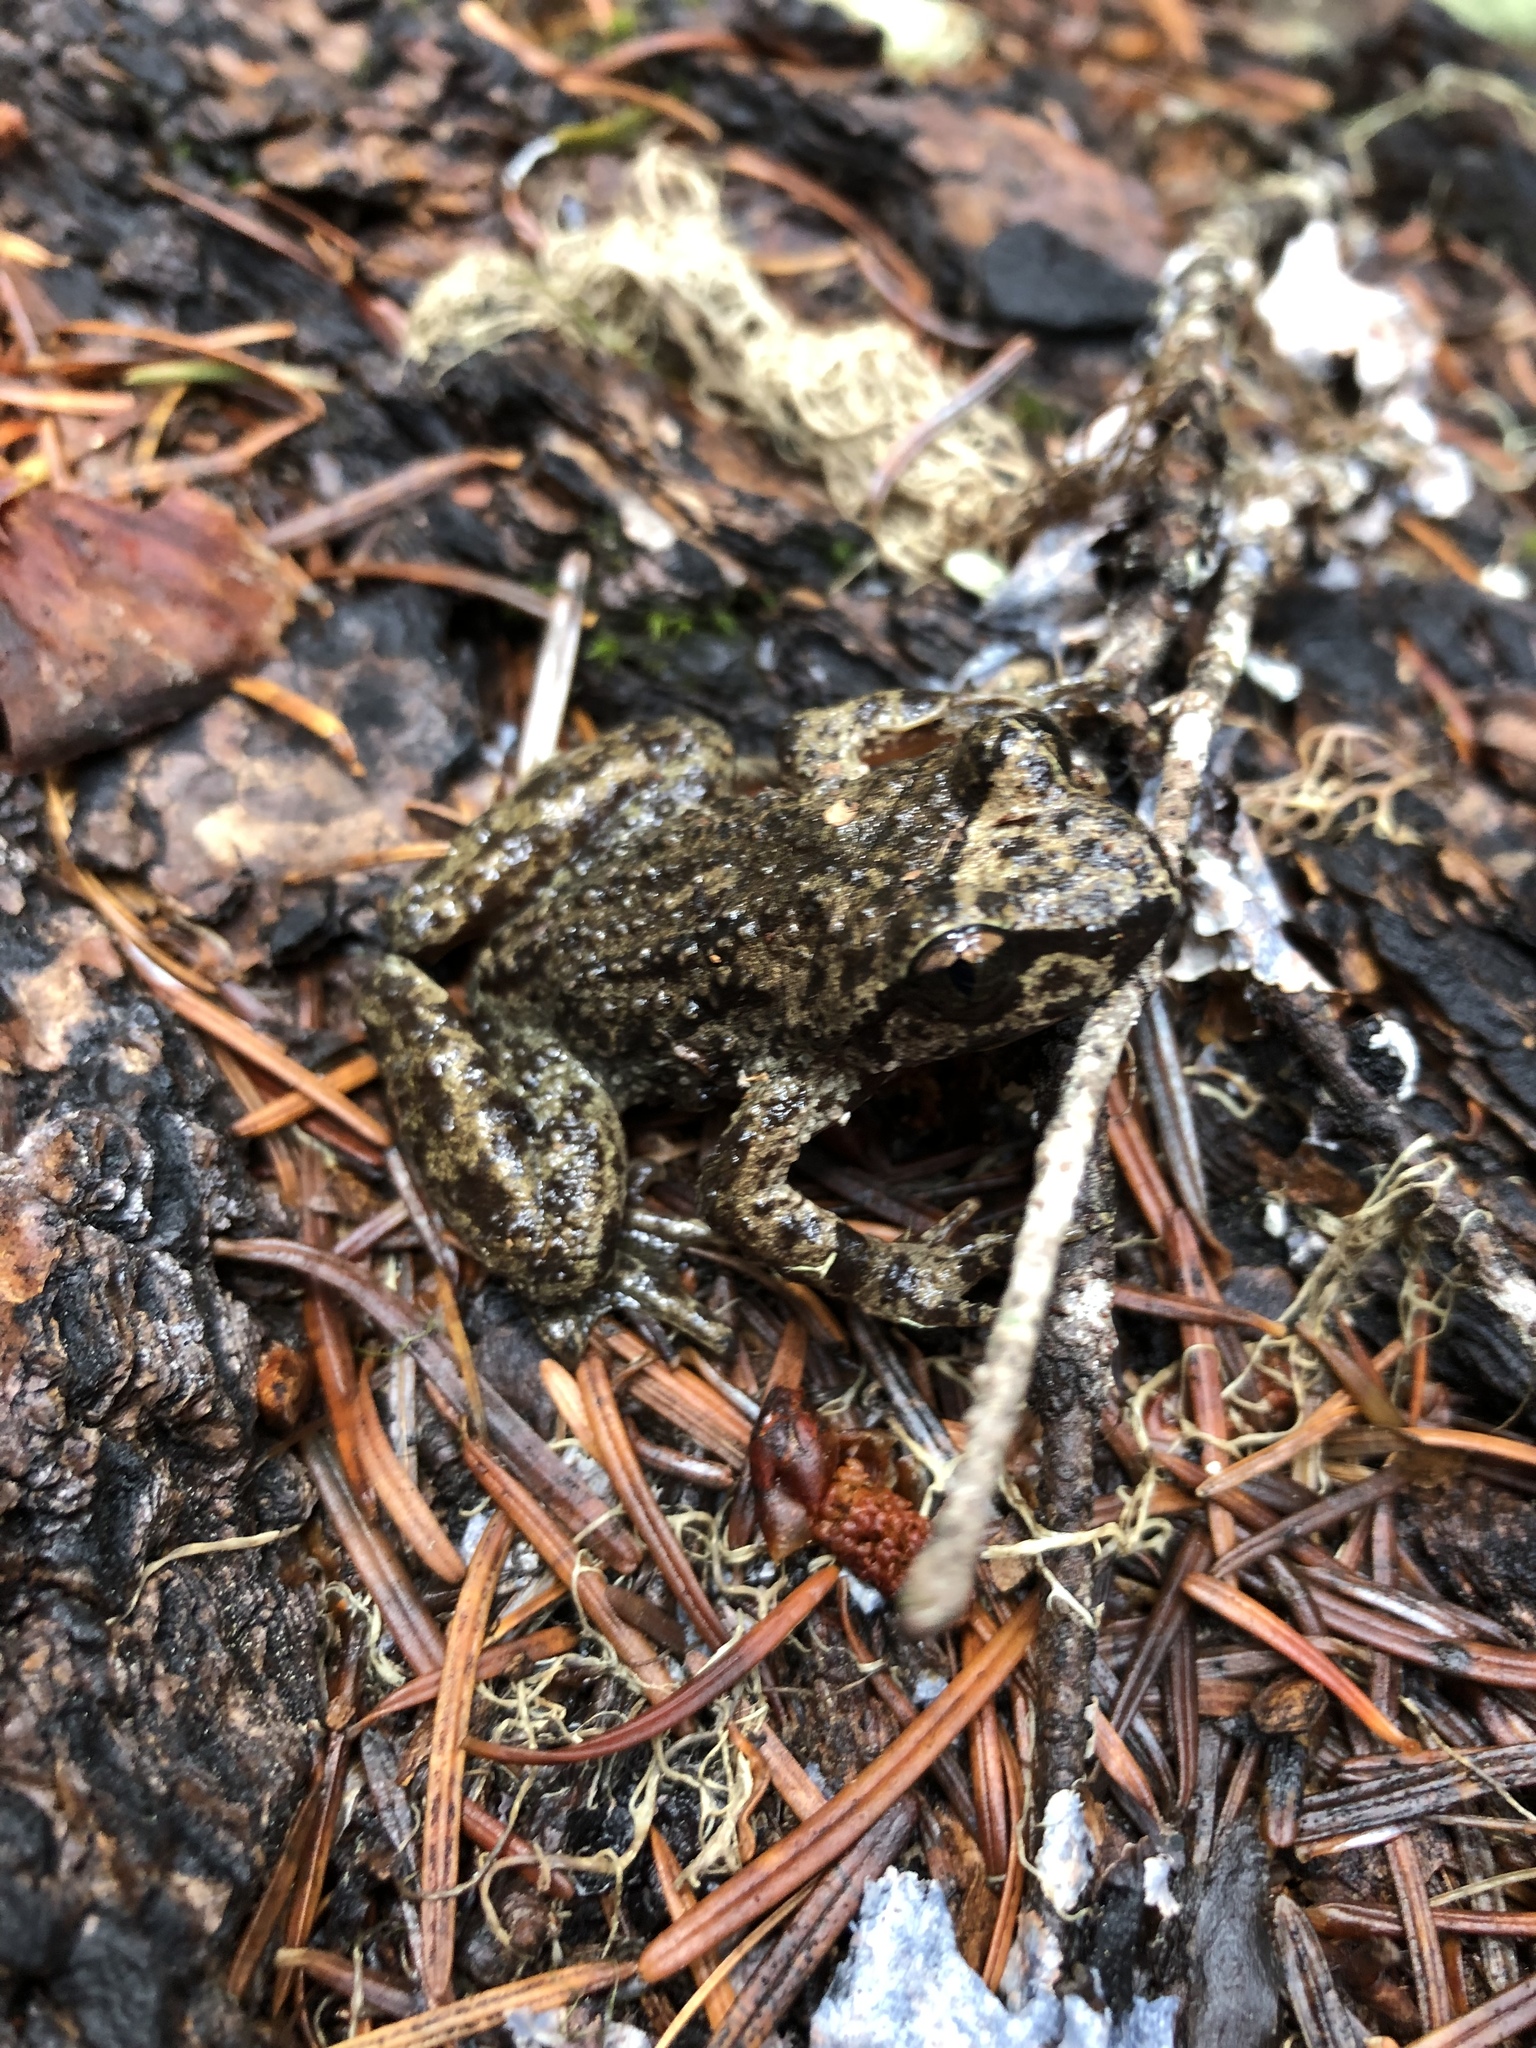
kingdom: Animalia
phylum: Chordata
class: Amphibia
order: Anura
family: Ascaphidae
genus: Ascaphus
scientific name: Ascaphus truei
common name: Tailed frog
